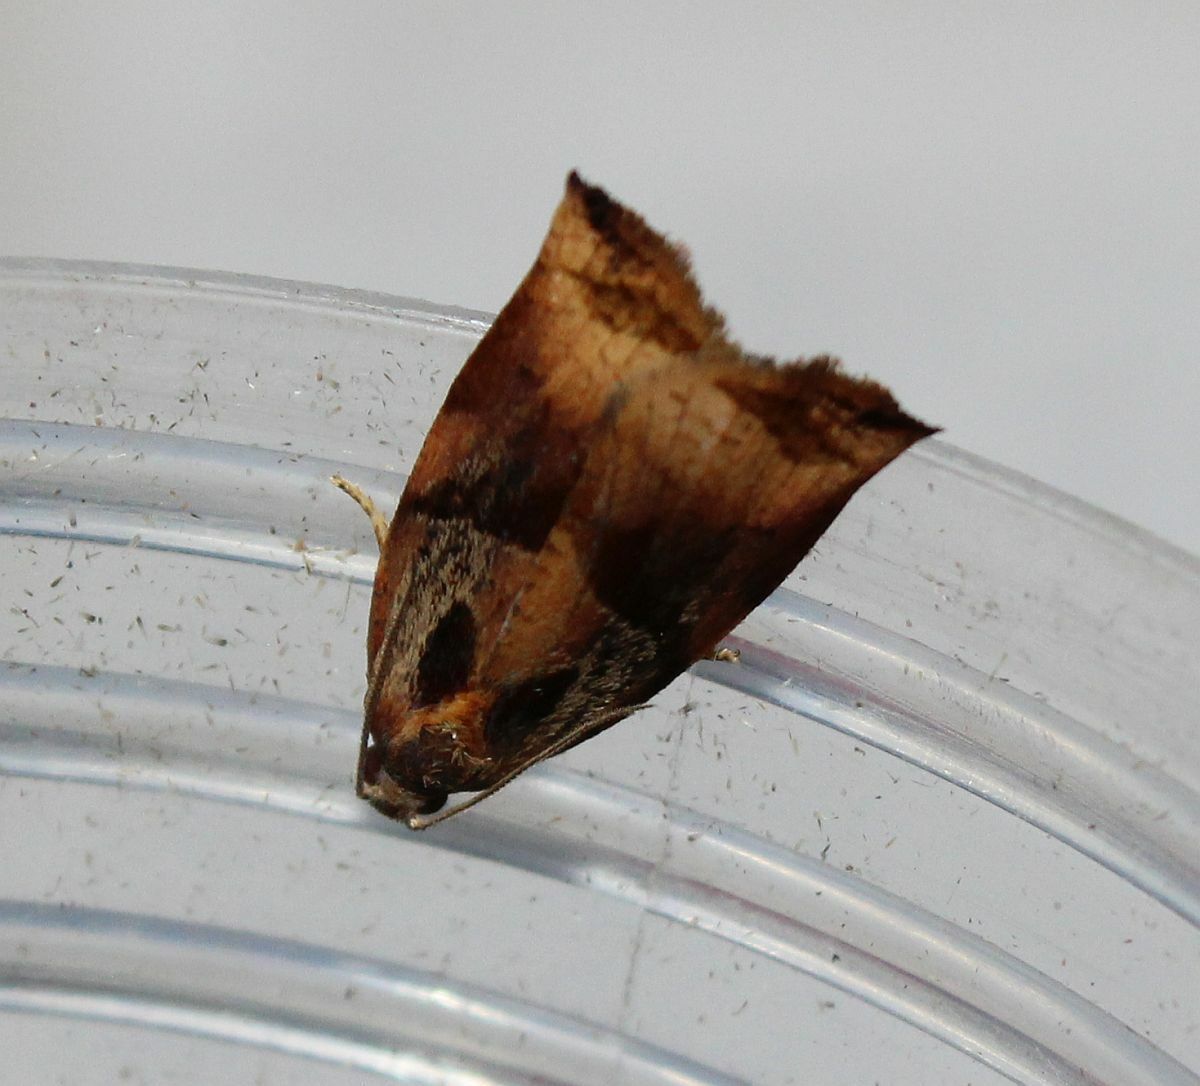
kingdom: Animalia
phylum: Arthropoda
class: Insecta
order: Lepidoptera
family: Tortricidae
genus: Archips
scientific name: Archips podana
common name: Large fruit-tree tortrix
